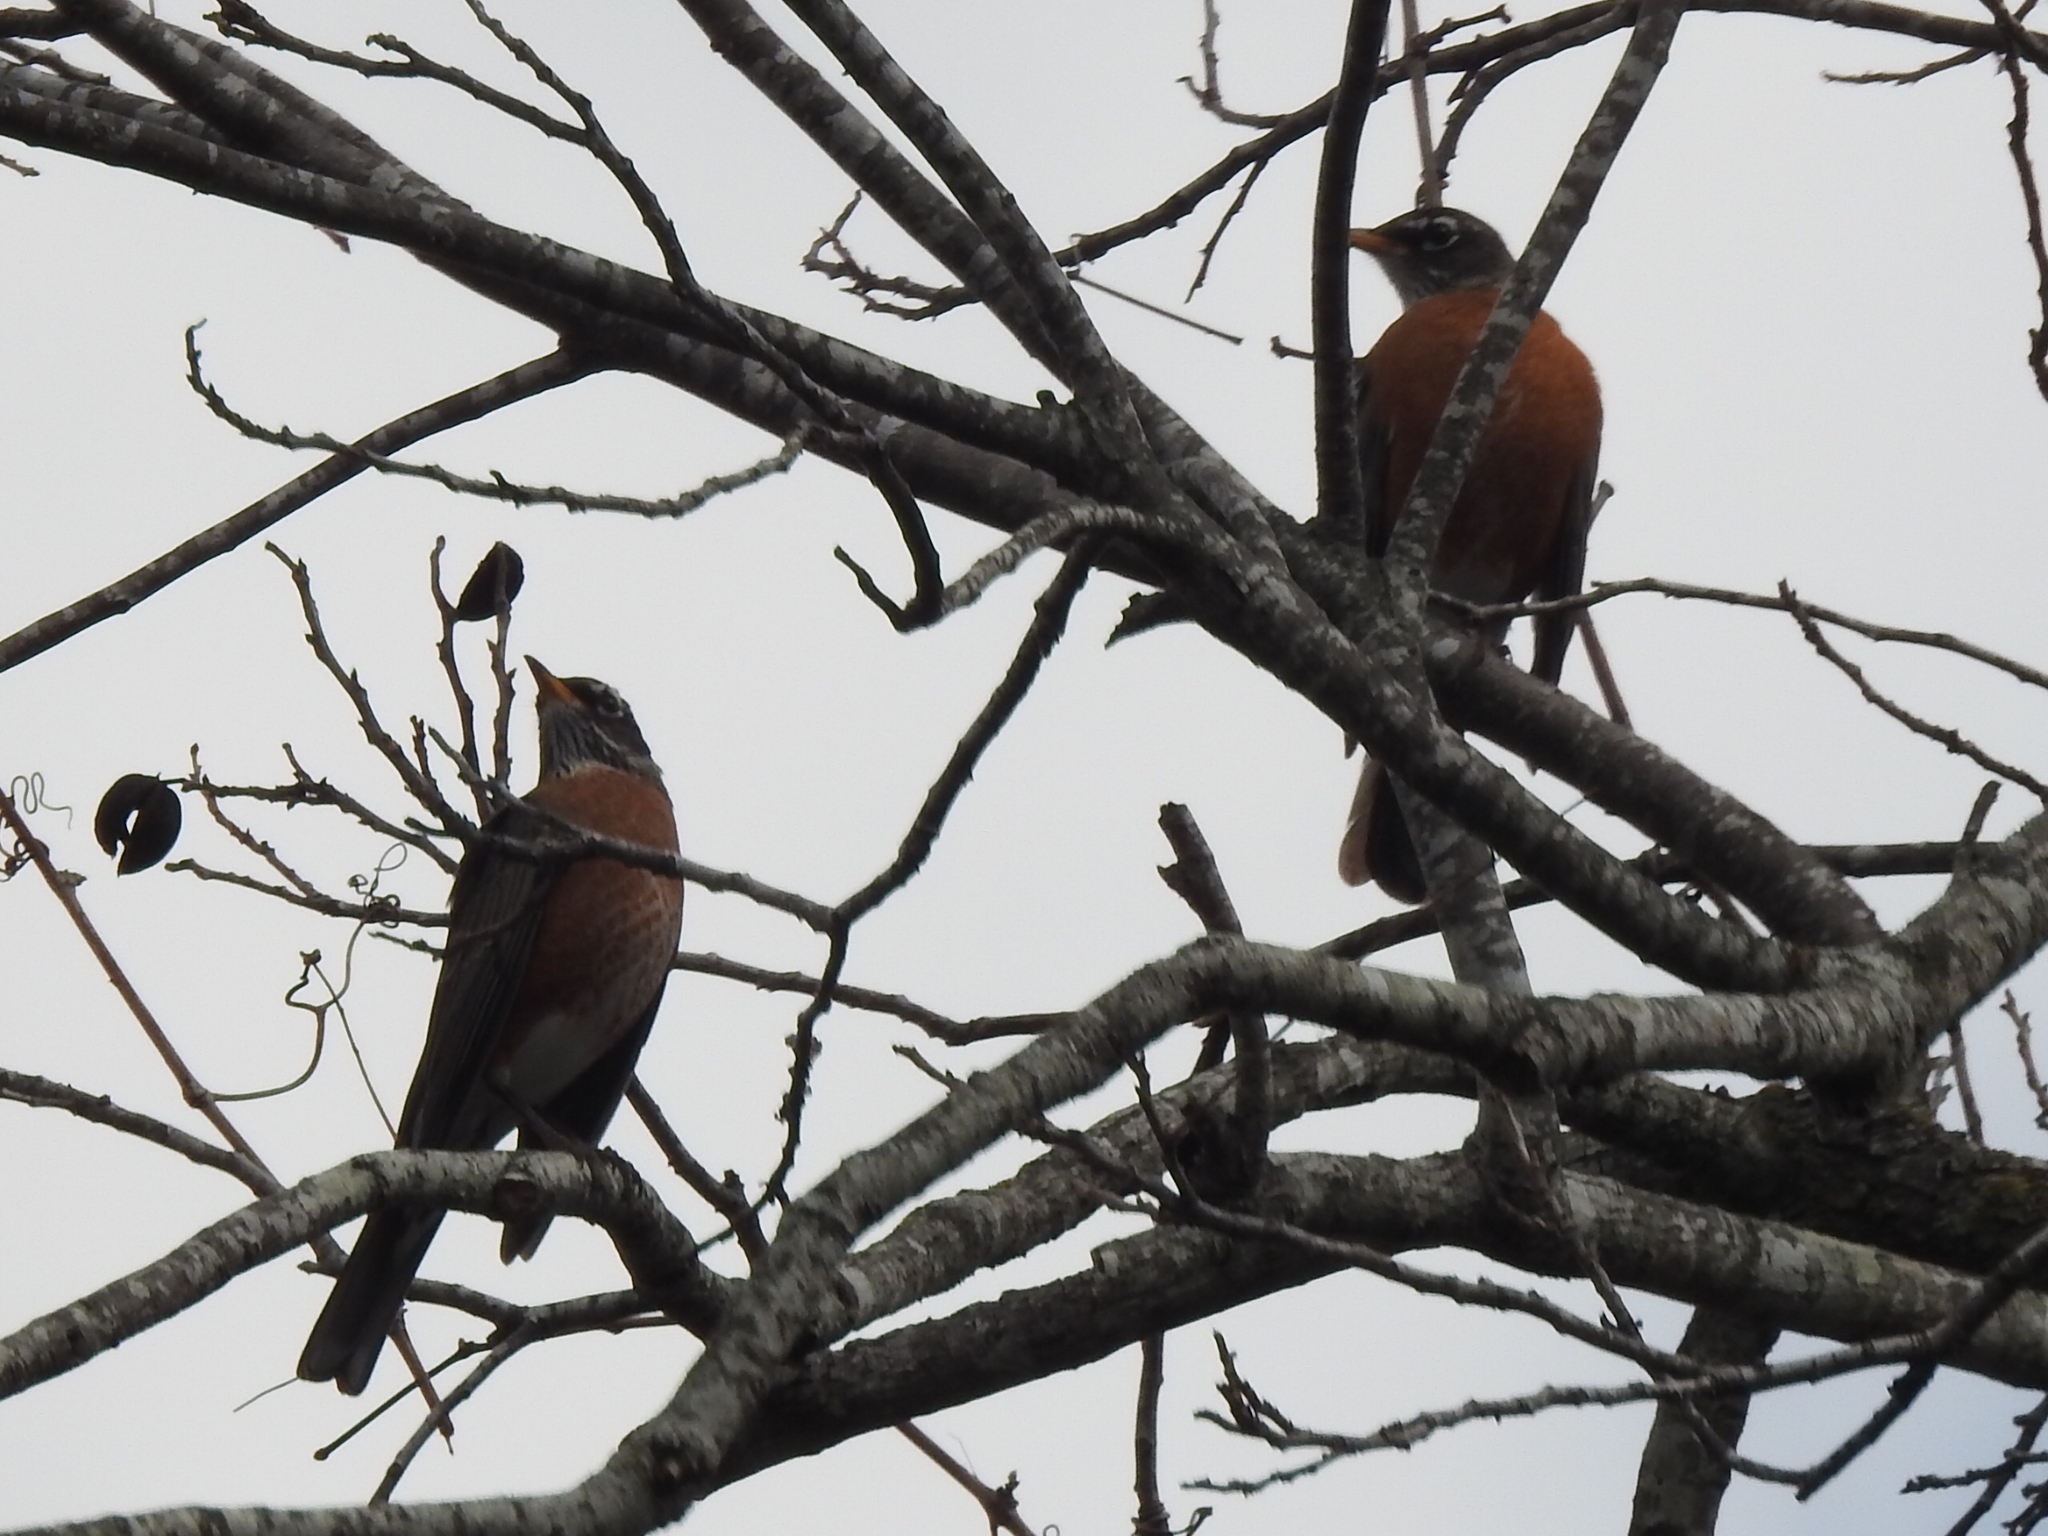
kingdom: Animalia
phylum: Chordata
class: Aves
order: Passeriformes
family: Turdidae
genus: Turdus
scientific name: Turdus migratorius
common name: American robin
